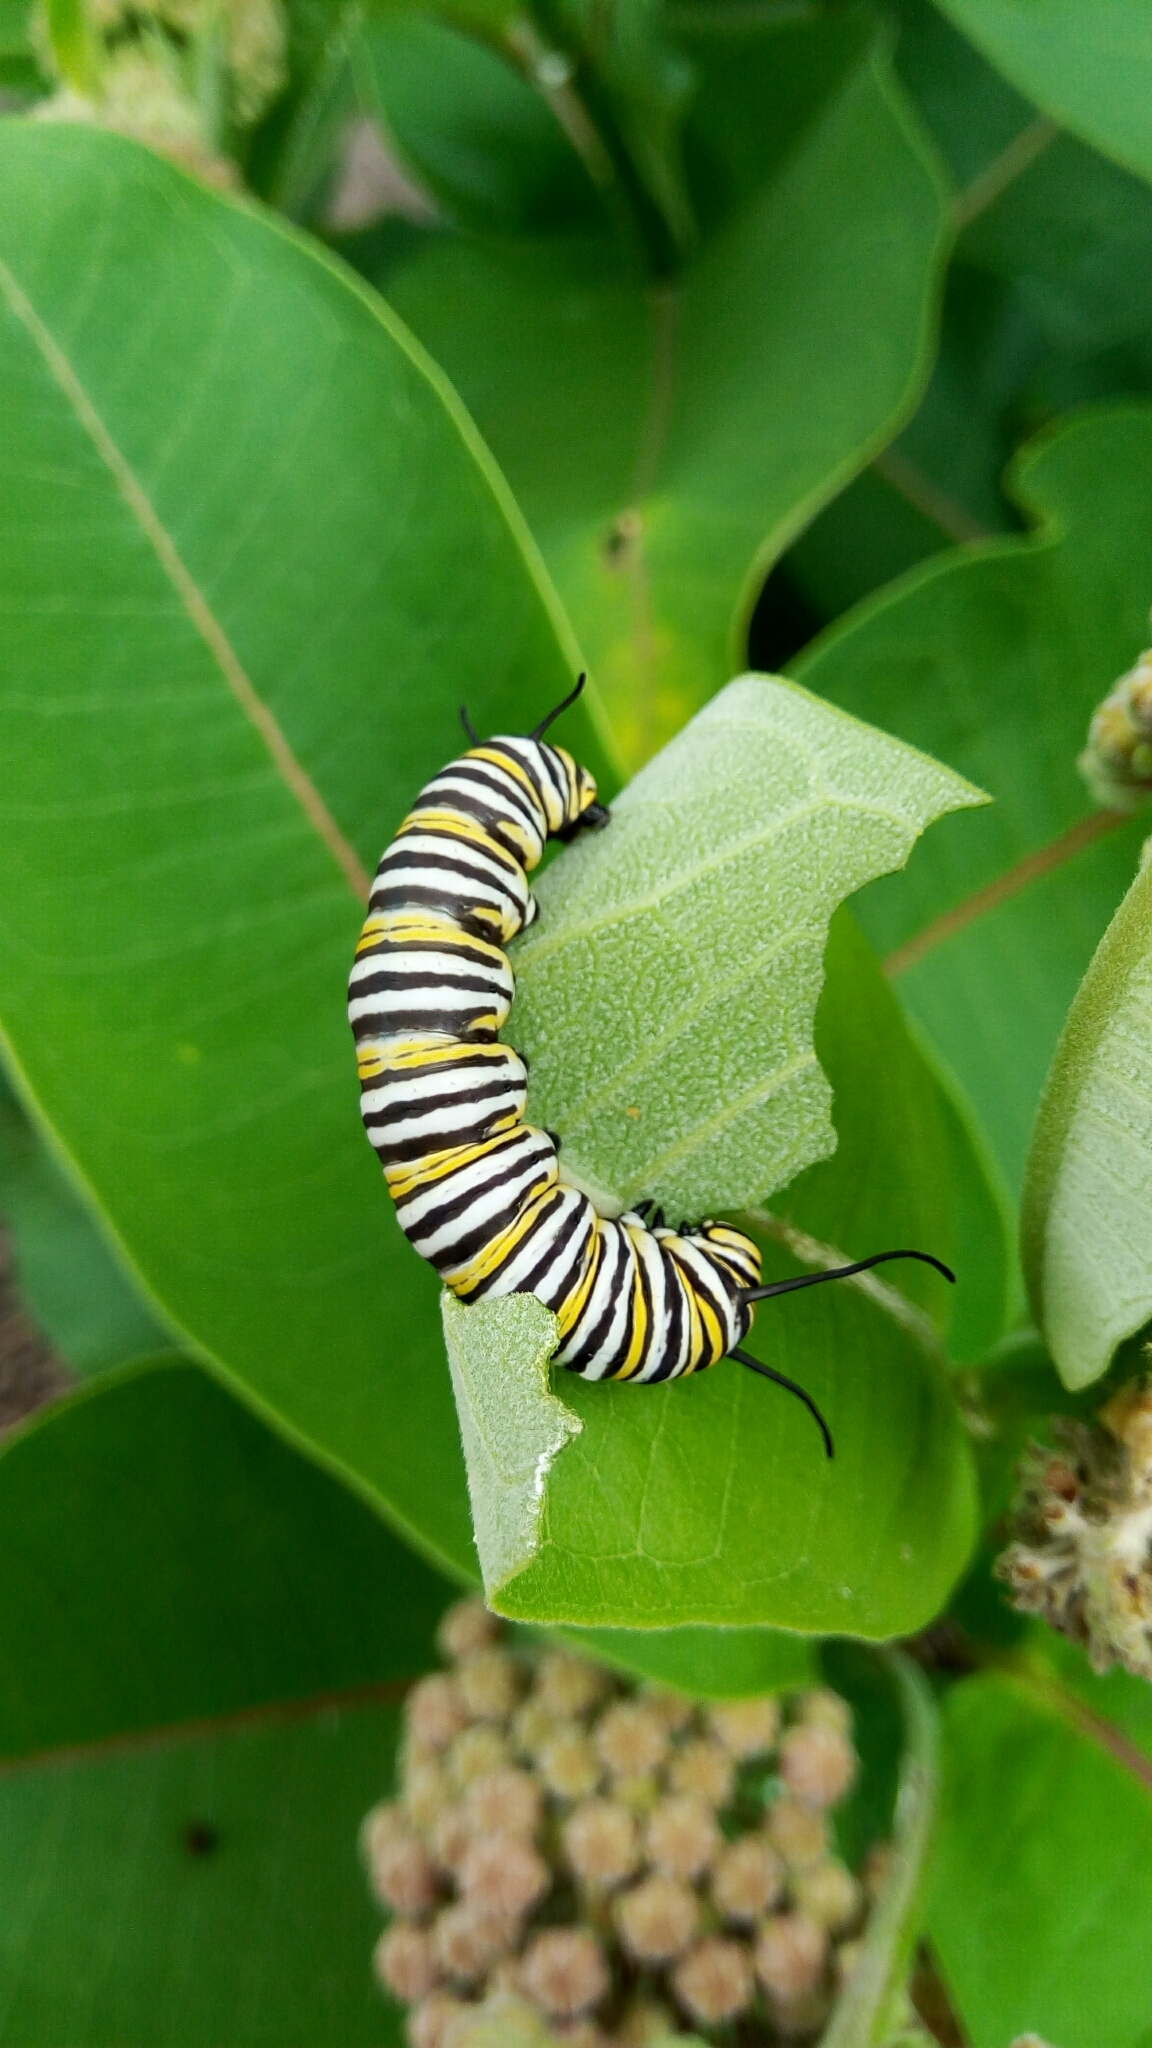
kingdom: Animalia
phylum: Arthropoda
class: Insecta
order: Lepidoptera
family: Nymphalidae
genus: Danaus
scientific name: Danaus plexippus
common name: Monarch
